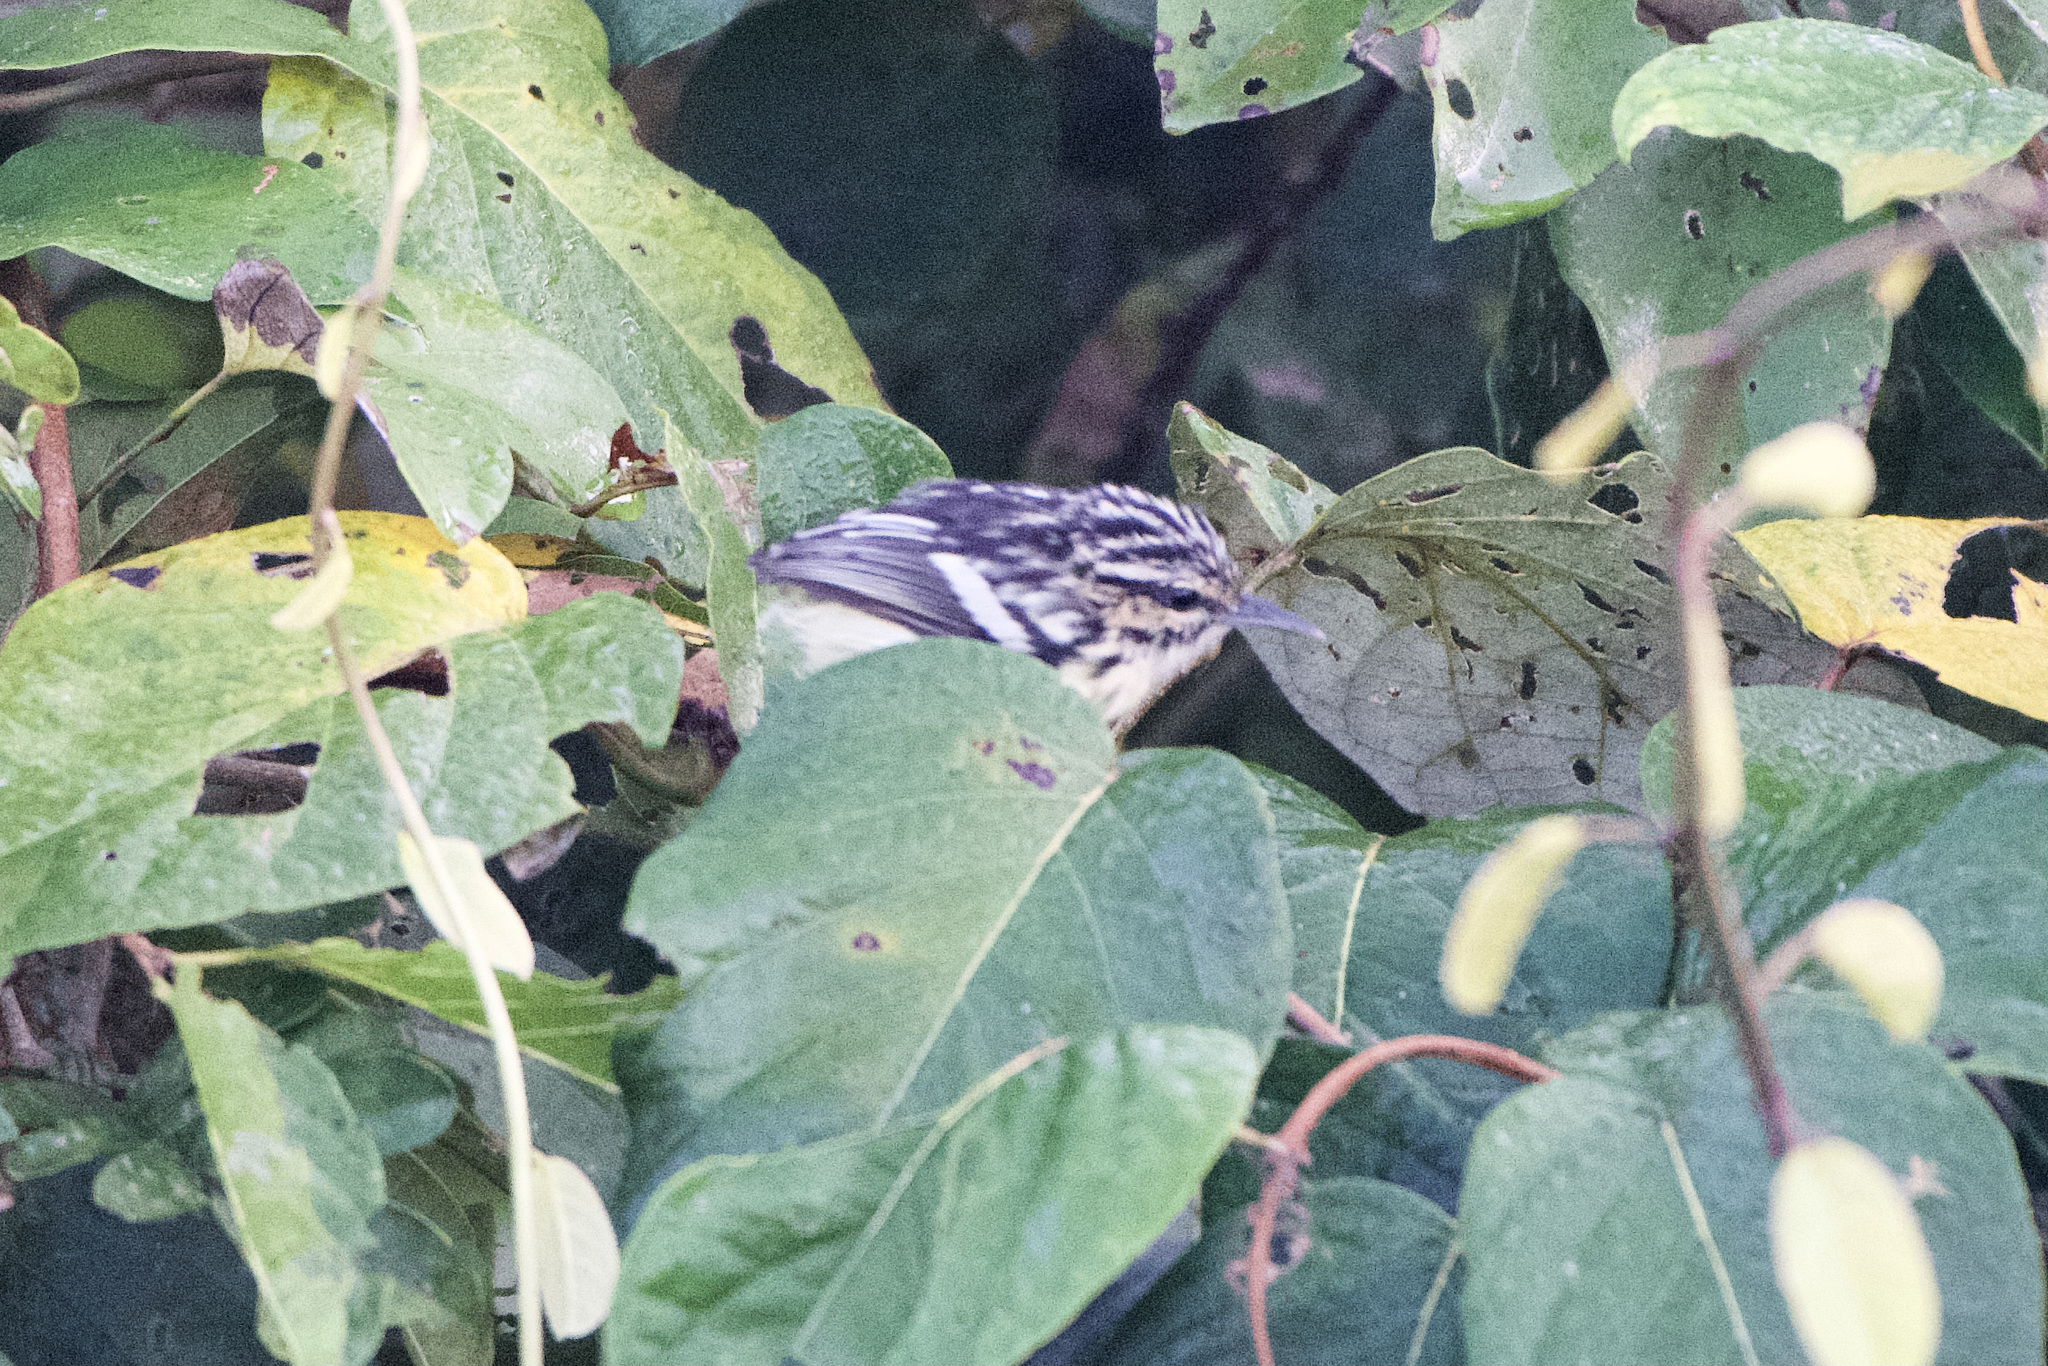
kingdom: Animalia
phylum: Chordata
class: Aves
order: Passeriformes
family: Thamnophilidae
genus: Myrmotherula
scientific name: Myrmotherula ignota
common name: Moustached antwren
